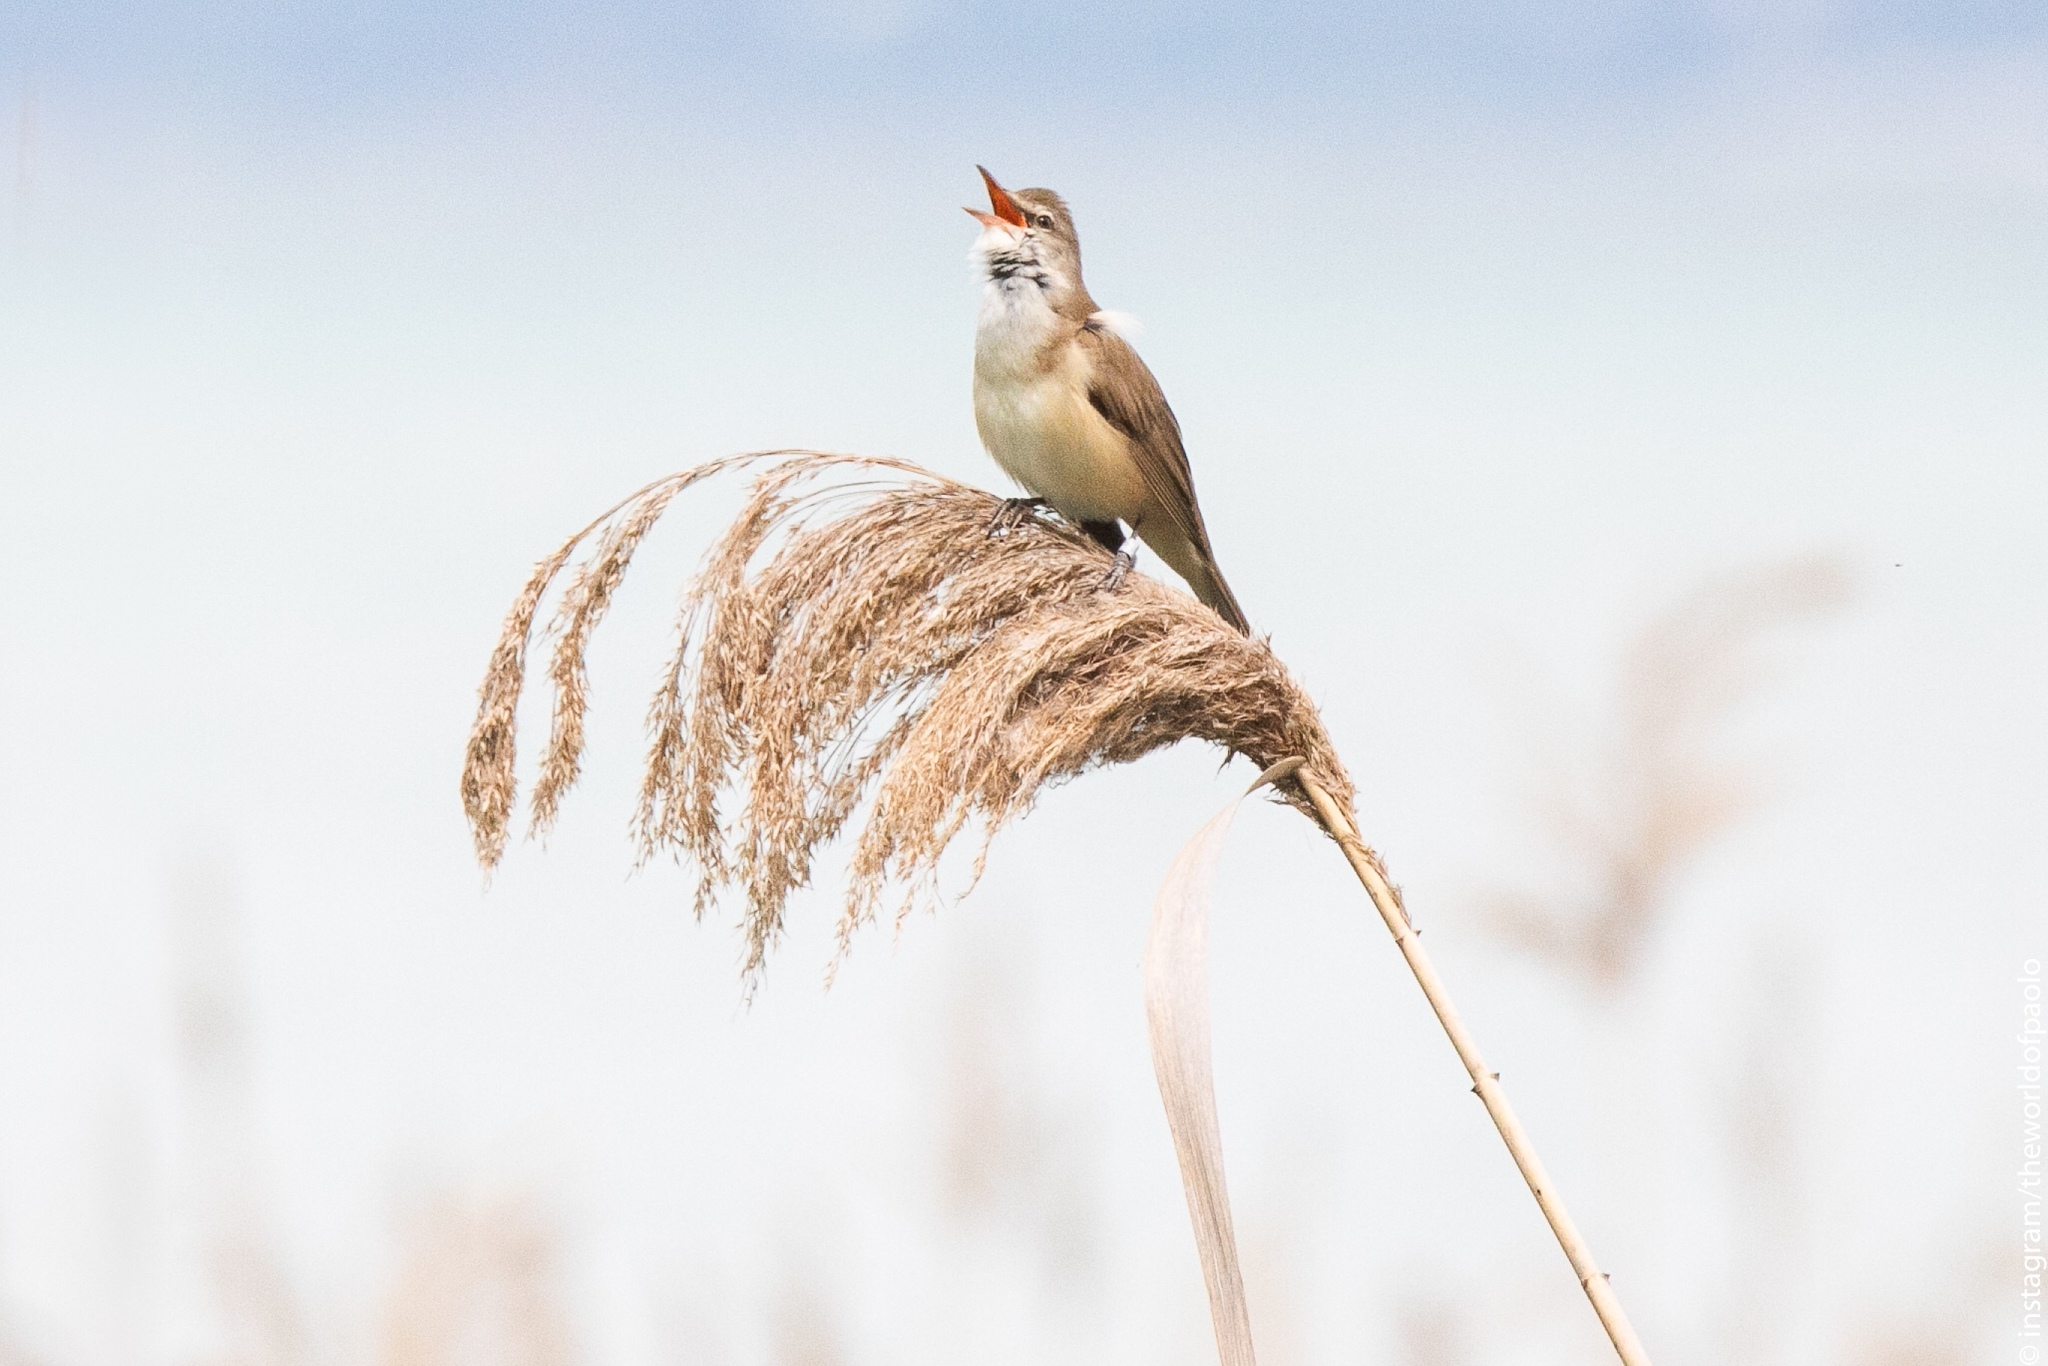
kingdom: Animalia
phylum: Chordata
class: Aves
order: Passeriformes
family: Acrocephalidae
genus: Acrocephalus
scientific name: Acrocephalus arundinaceus
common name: Great reed warbler
